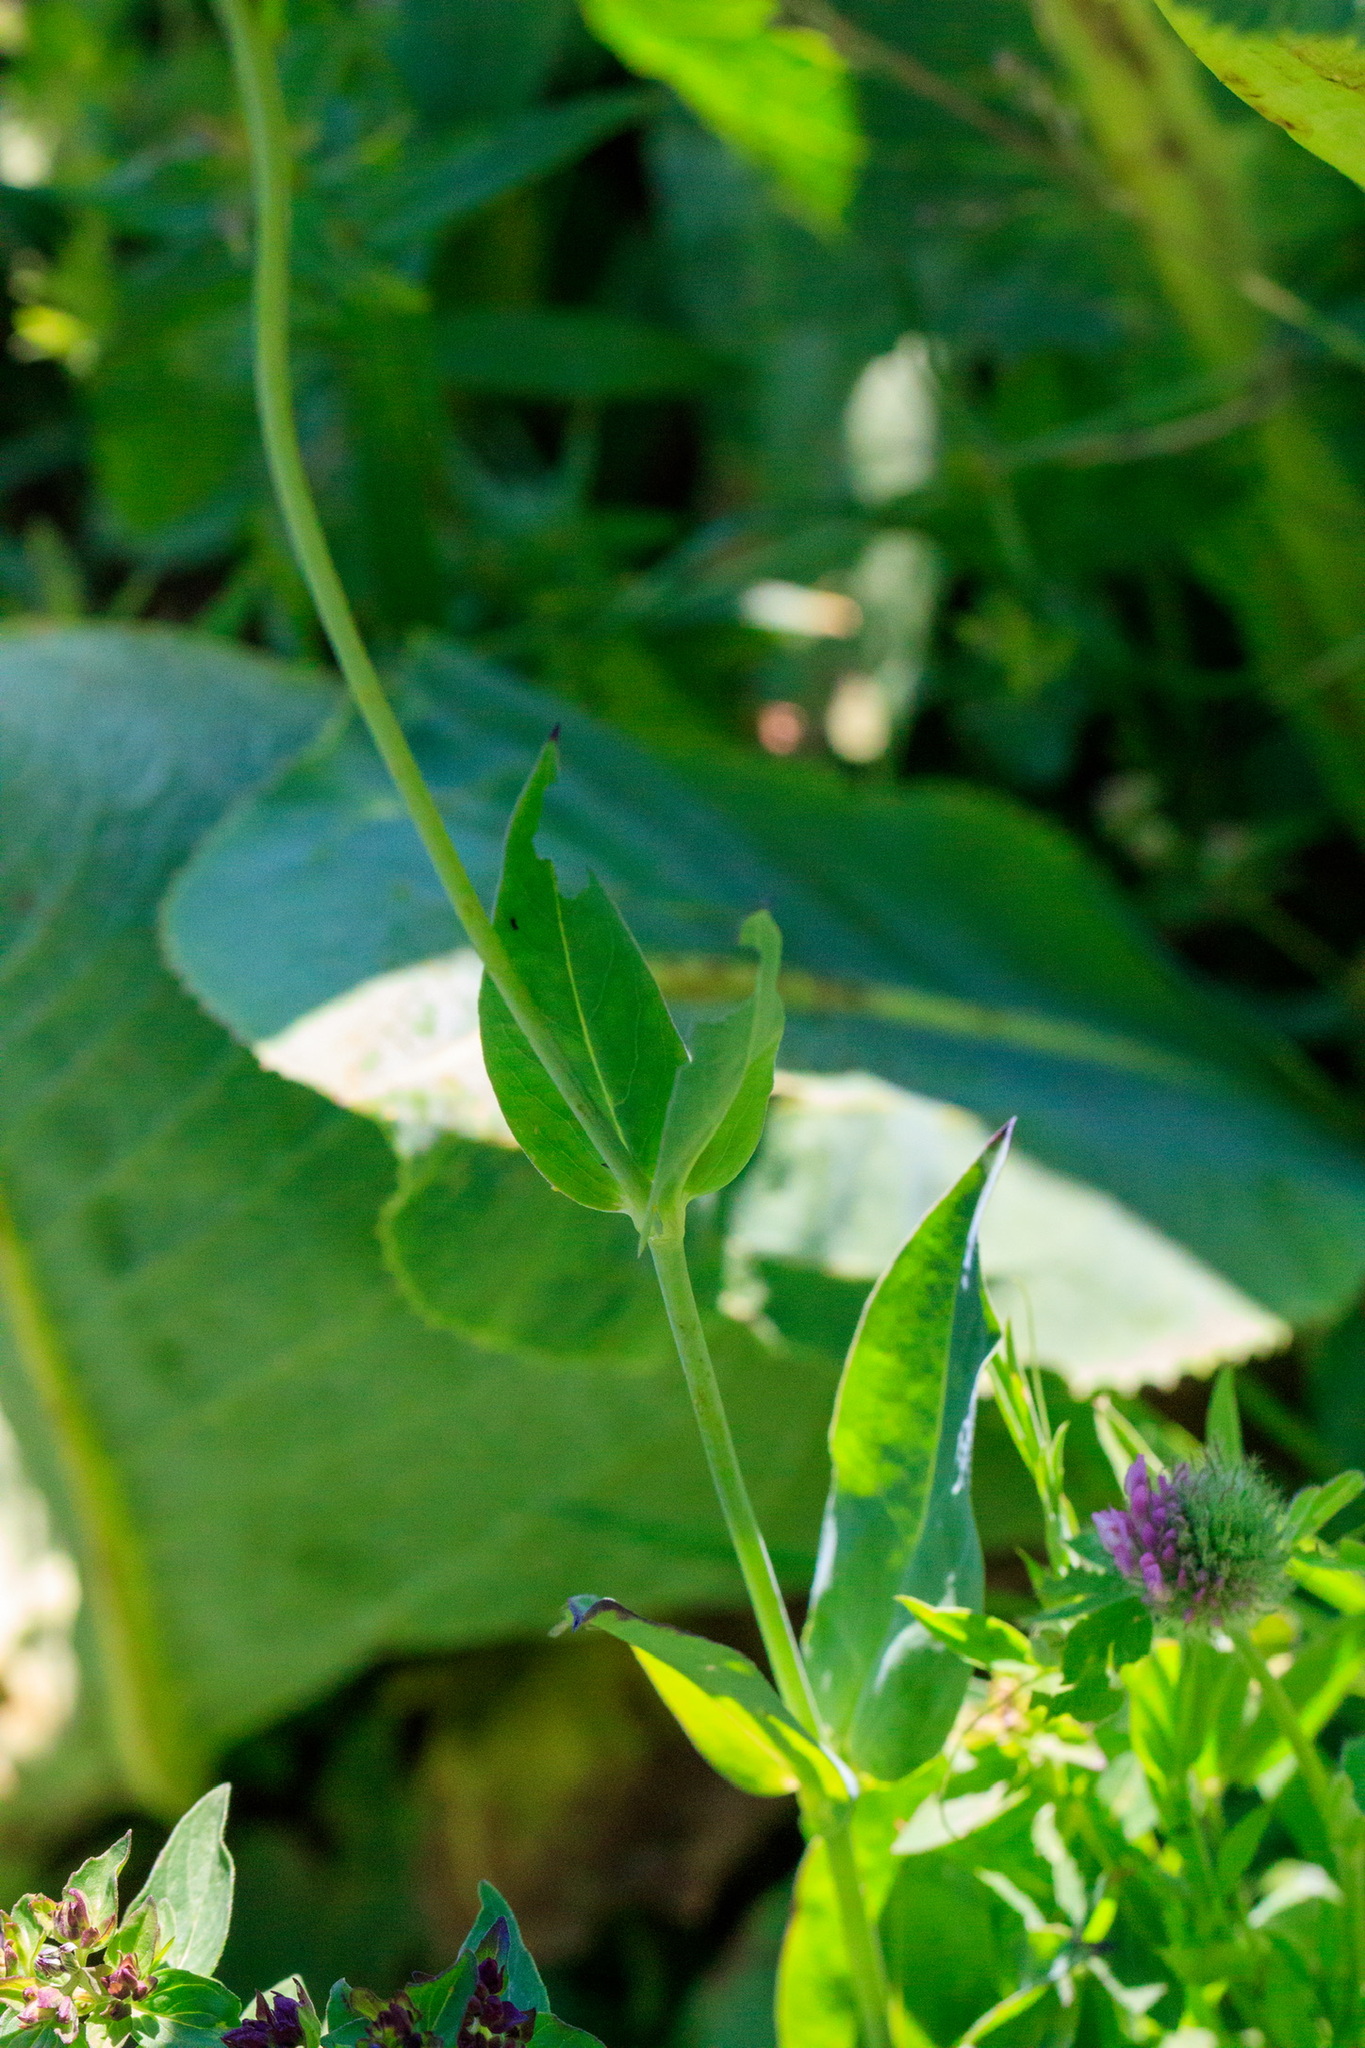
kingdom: Plantae
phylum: Tracheophyta
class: Magnoliopsida
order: Caryophyllales
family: Caryophyllaceae
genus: Silene
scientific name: Silene vulgaris
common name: Bladder campion
